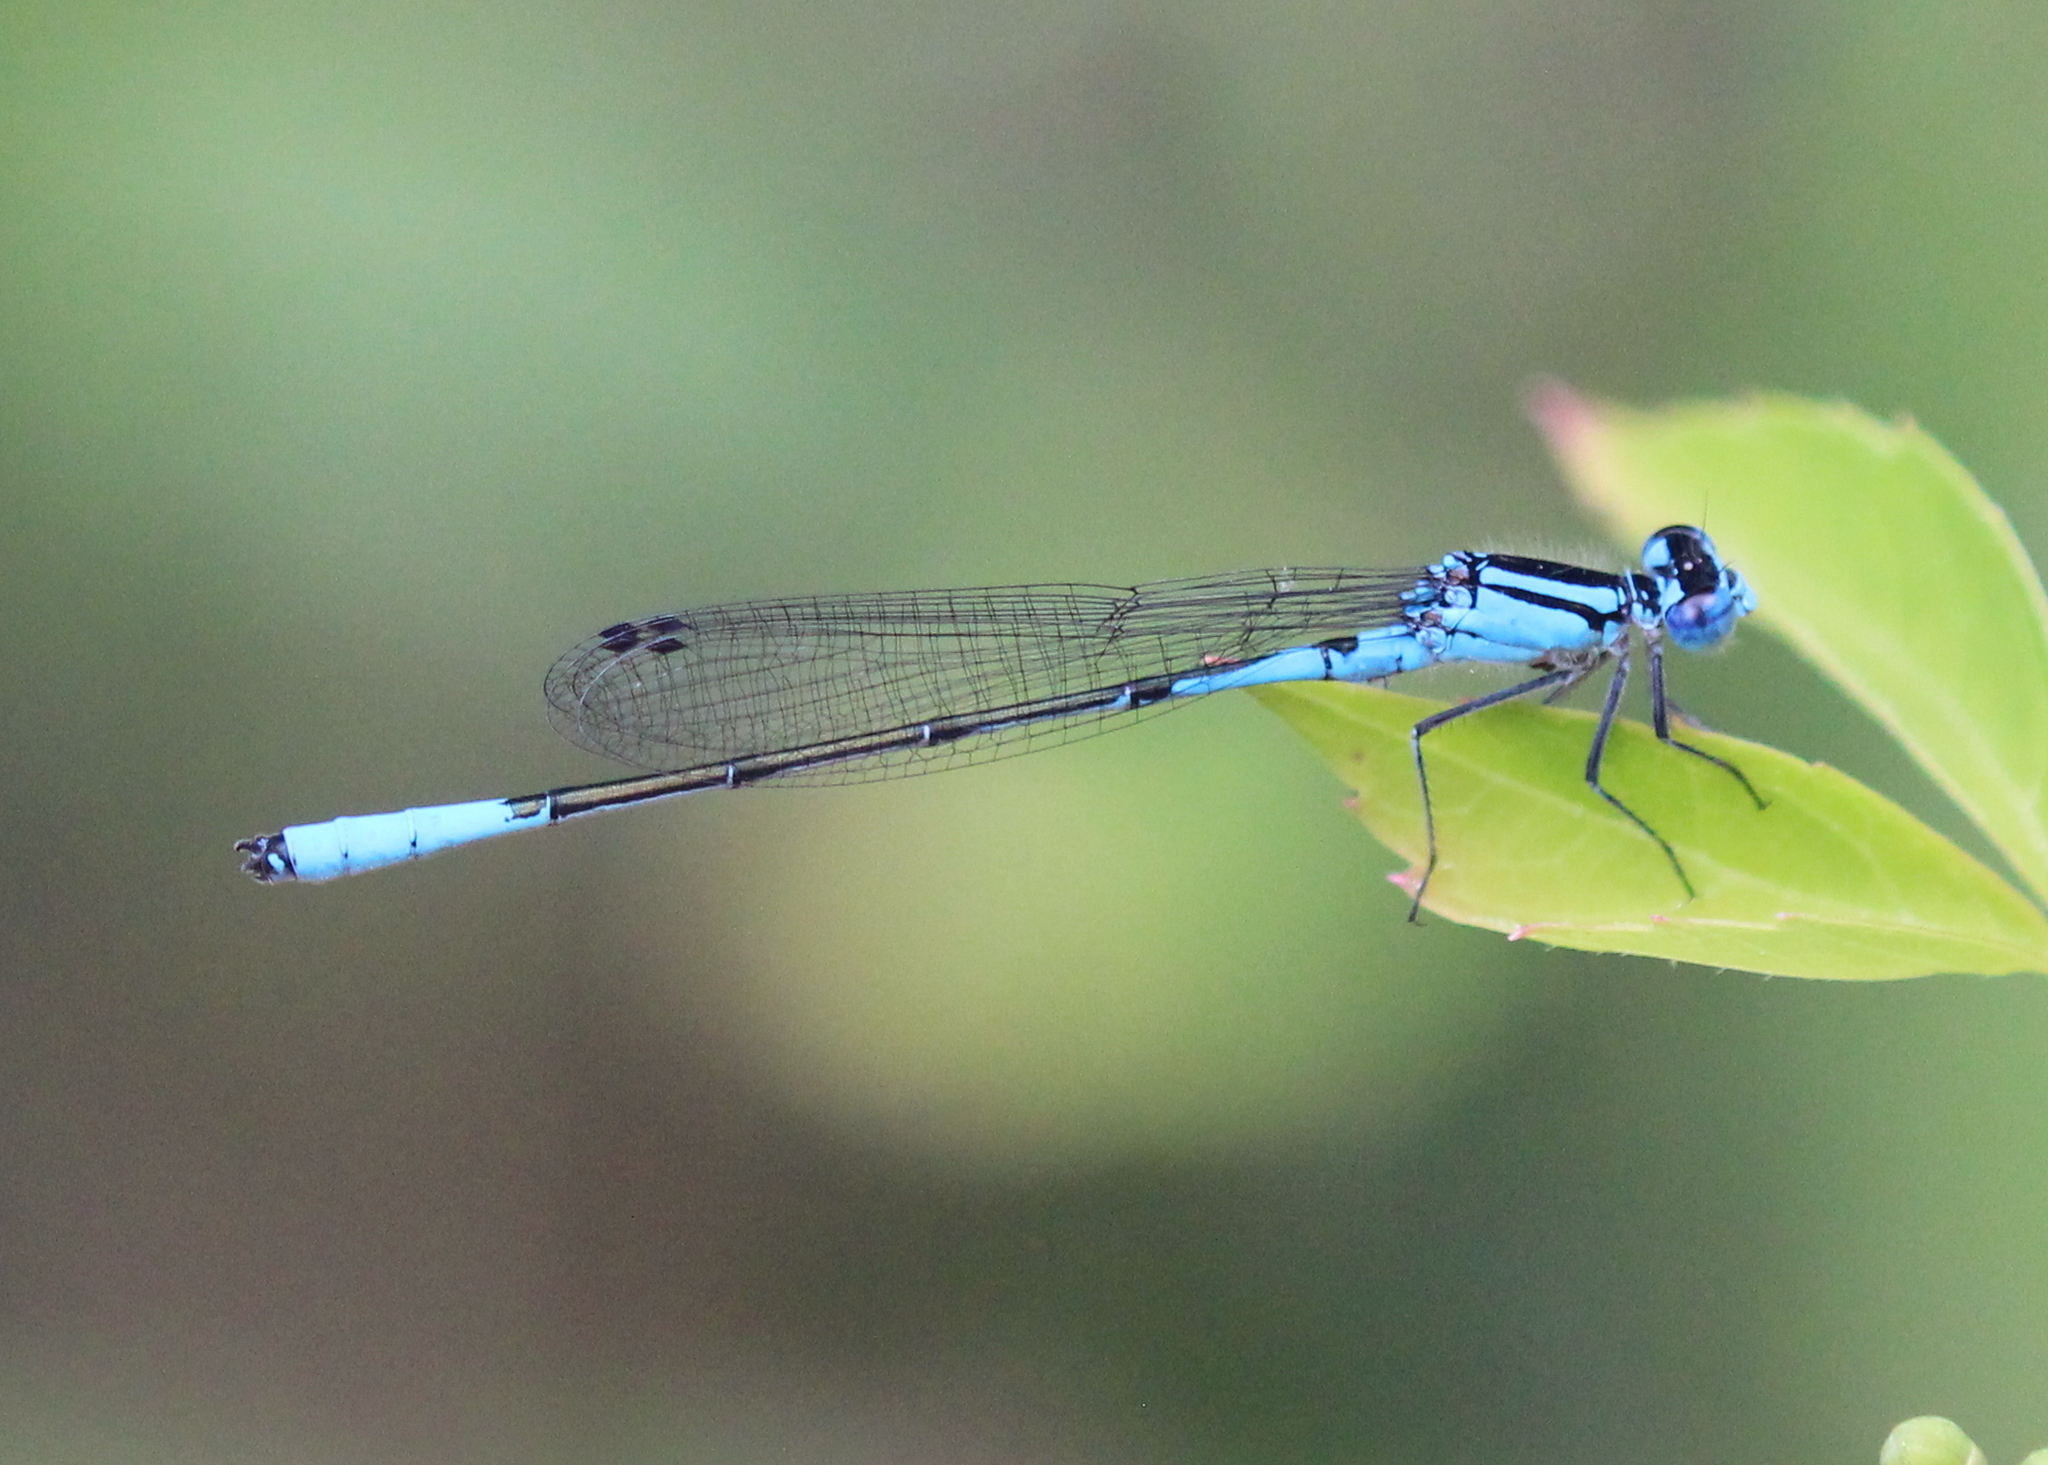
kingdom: Animalia
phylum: Arthropoda
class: Insecta
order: Odonata
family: Coenagrionidae
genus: Enallagma
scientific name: Enallagma aspersum
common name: Azure bluet
